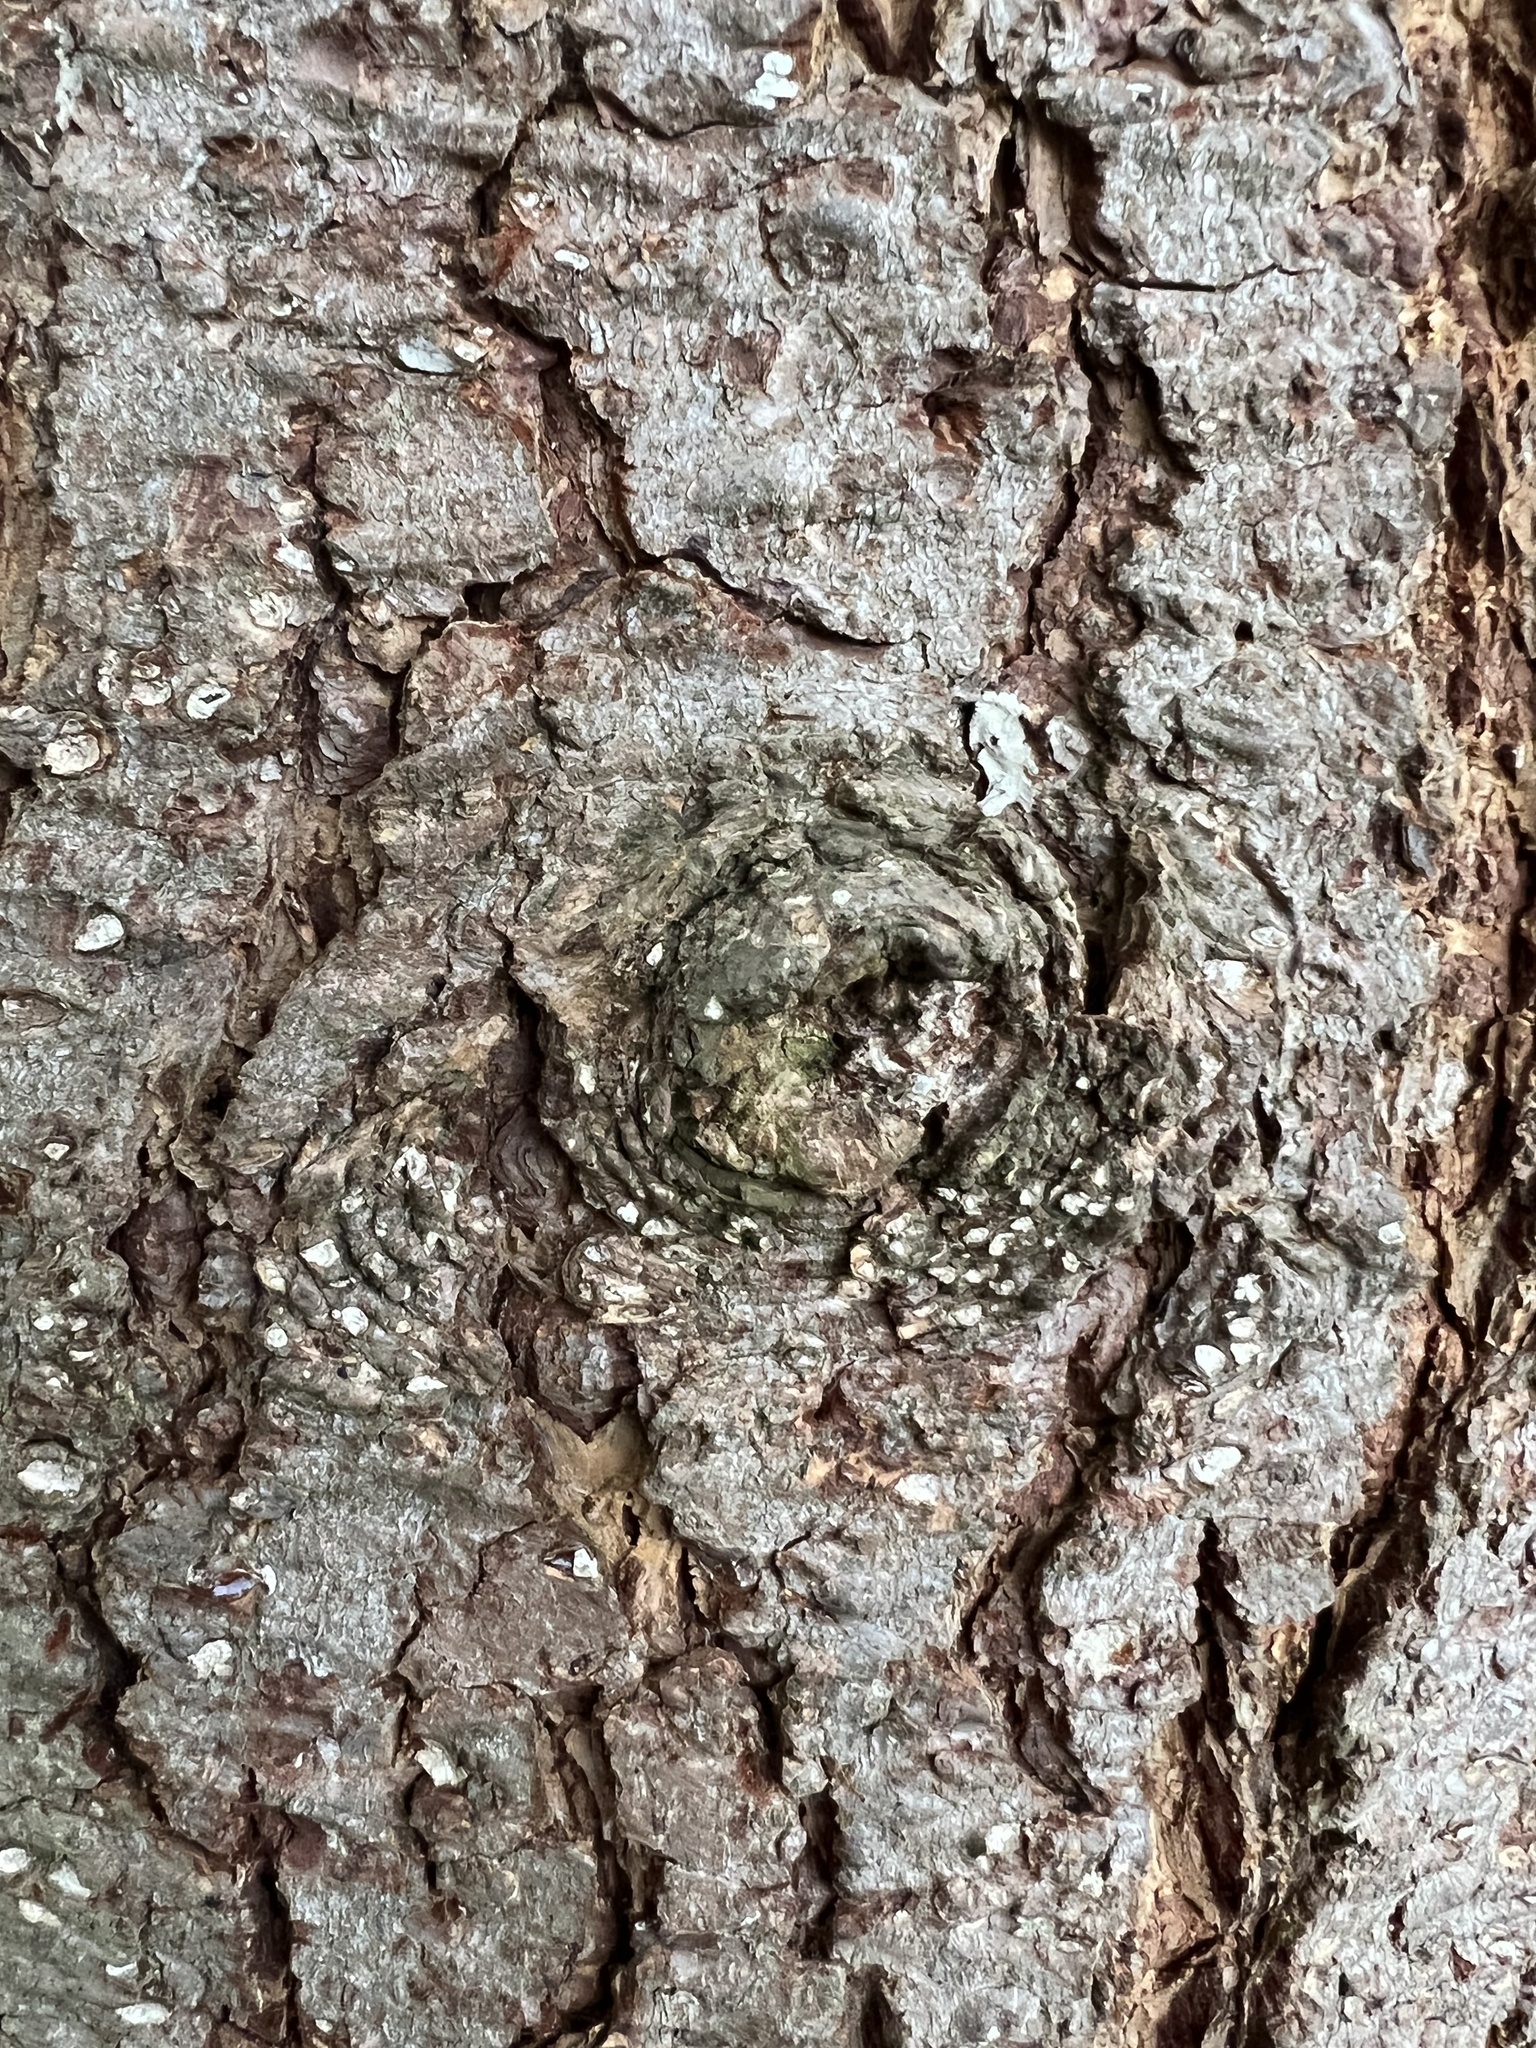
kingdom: Plantae
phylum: Tracheophyta
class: Pinopsida
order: Pinales
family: Pinaceae
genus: Pseudotsuga
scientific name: Pseudotsuga menziesii
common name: Douglas fir
